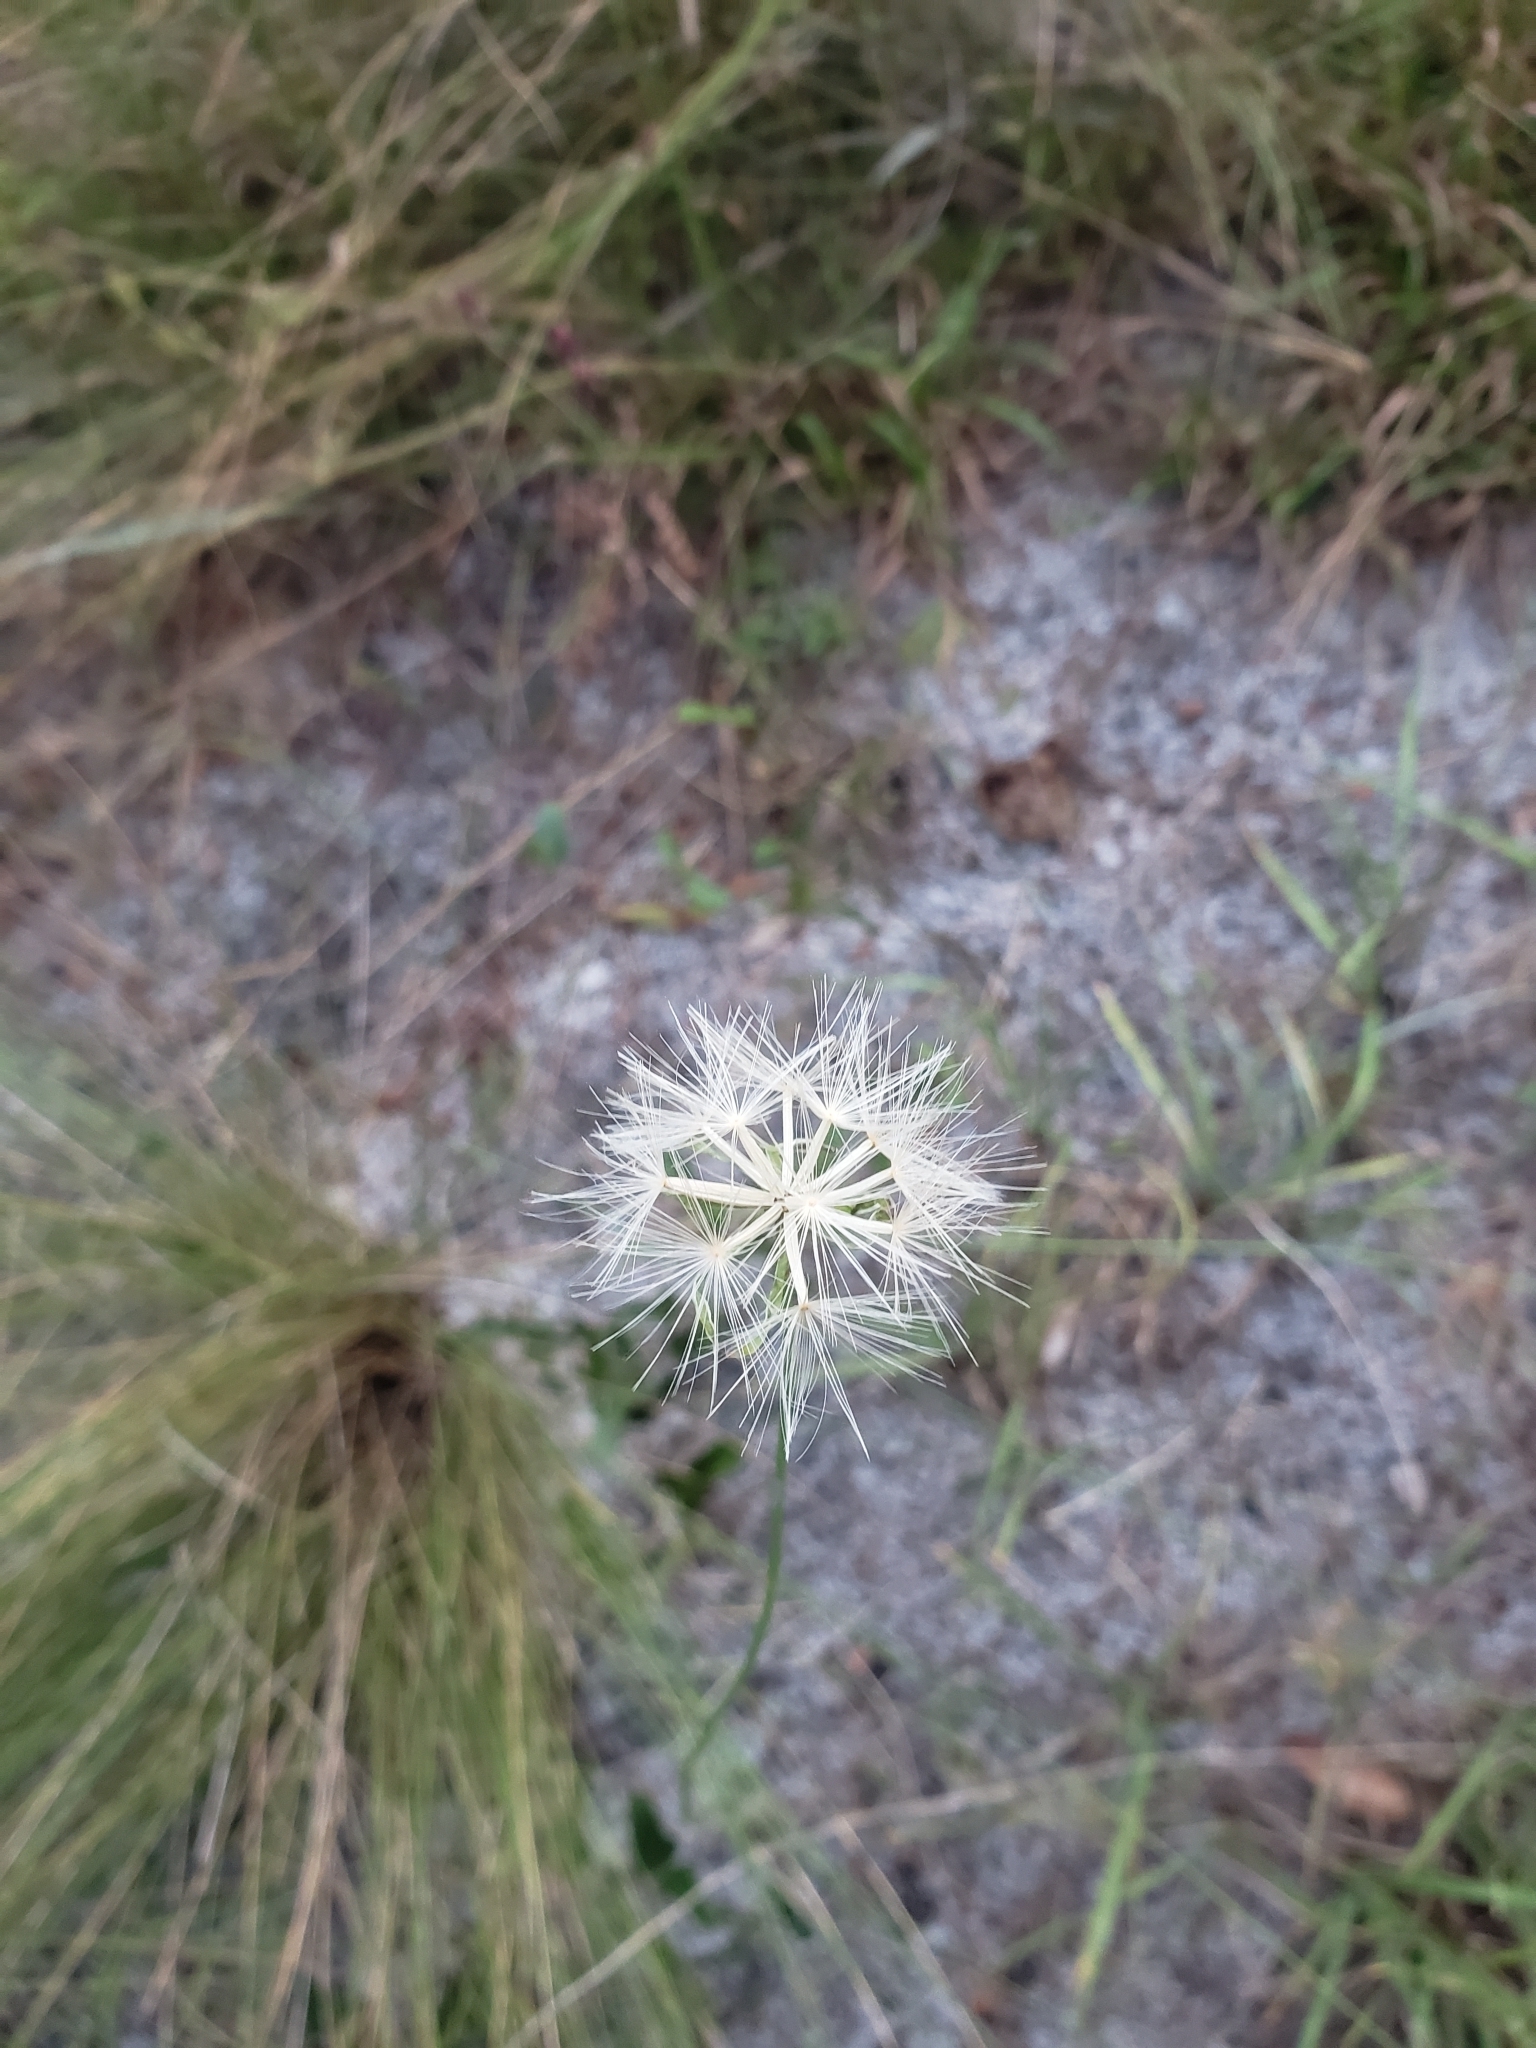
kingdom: Plantae
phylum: Tracheophyta
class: Magnoliopsida
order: Asterales
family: Asteraceae
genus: Lygodesmia
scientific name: Lygodesmia aphylla
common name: Rose-rush
